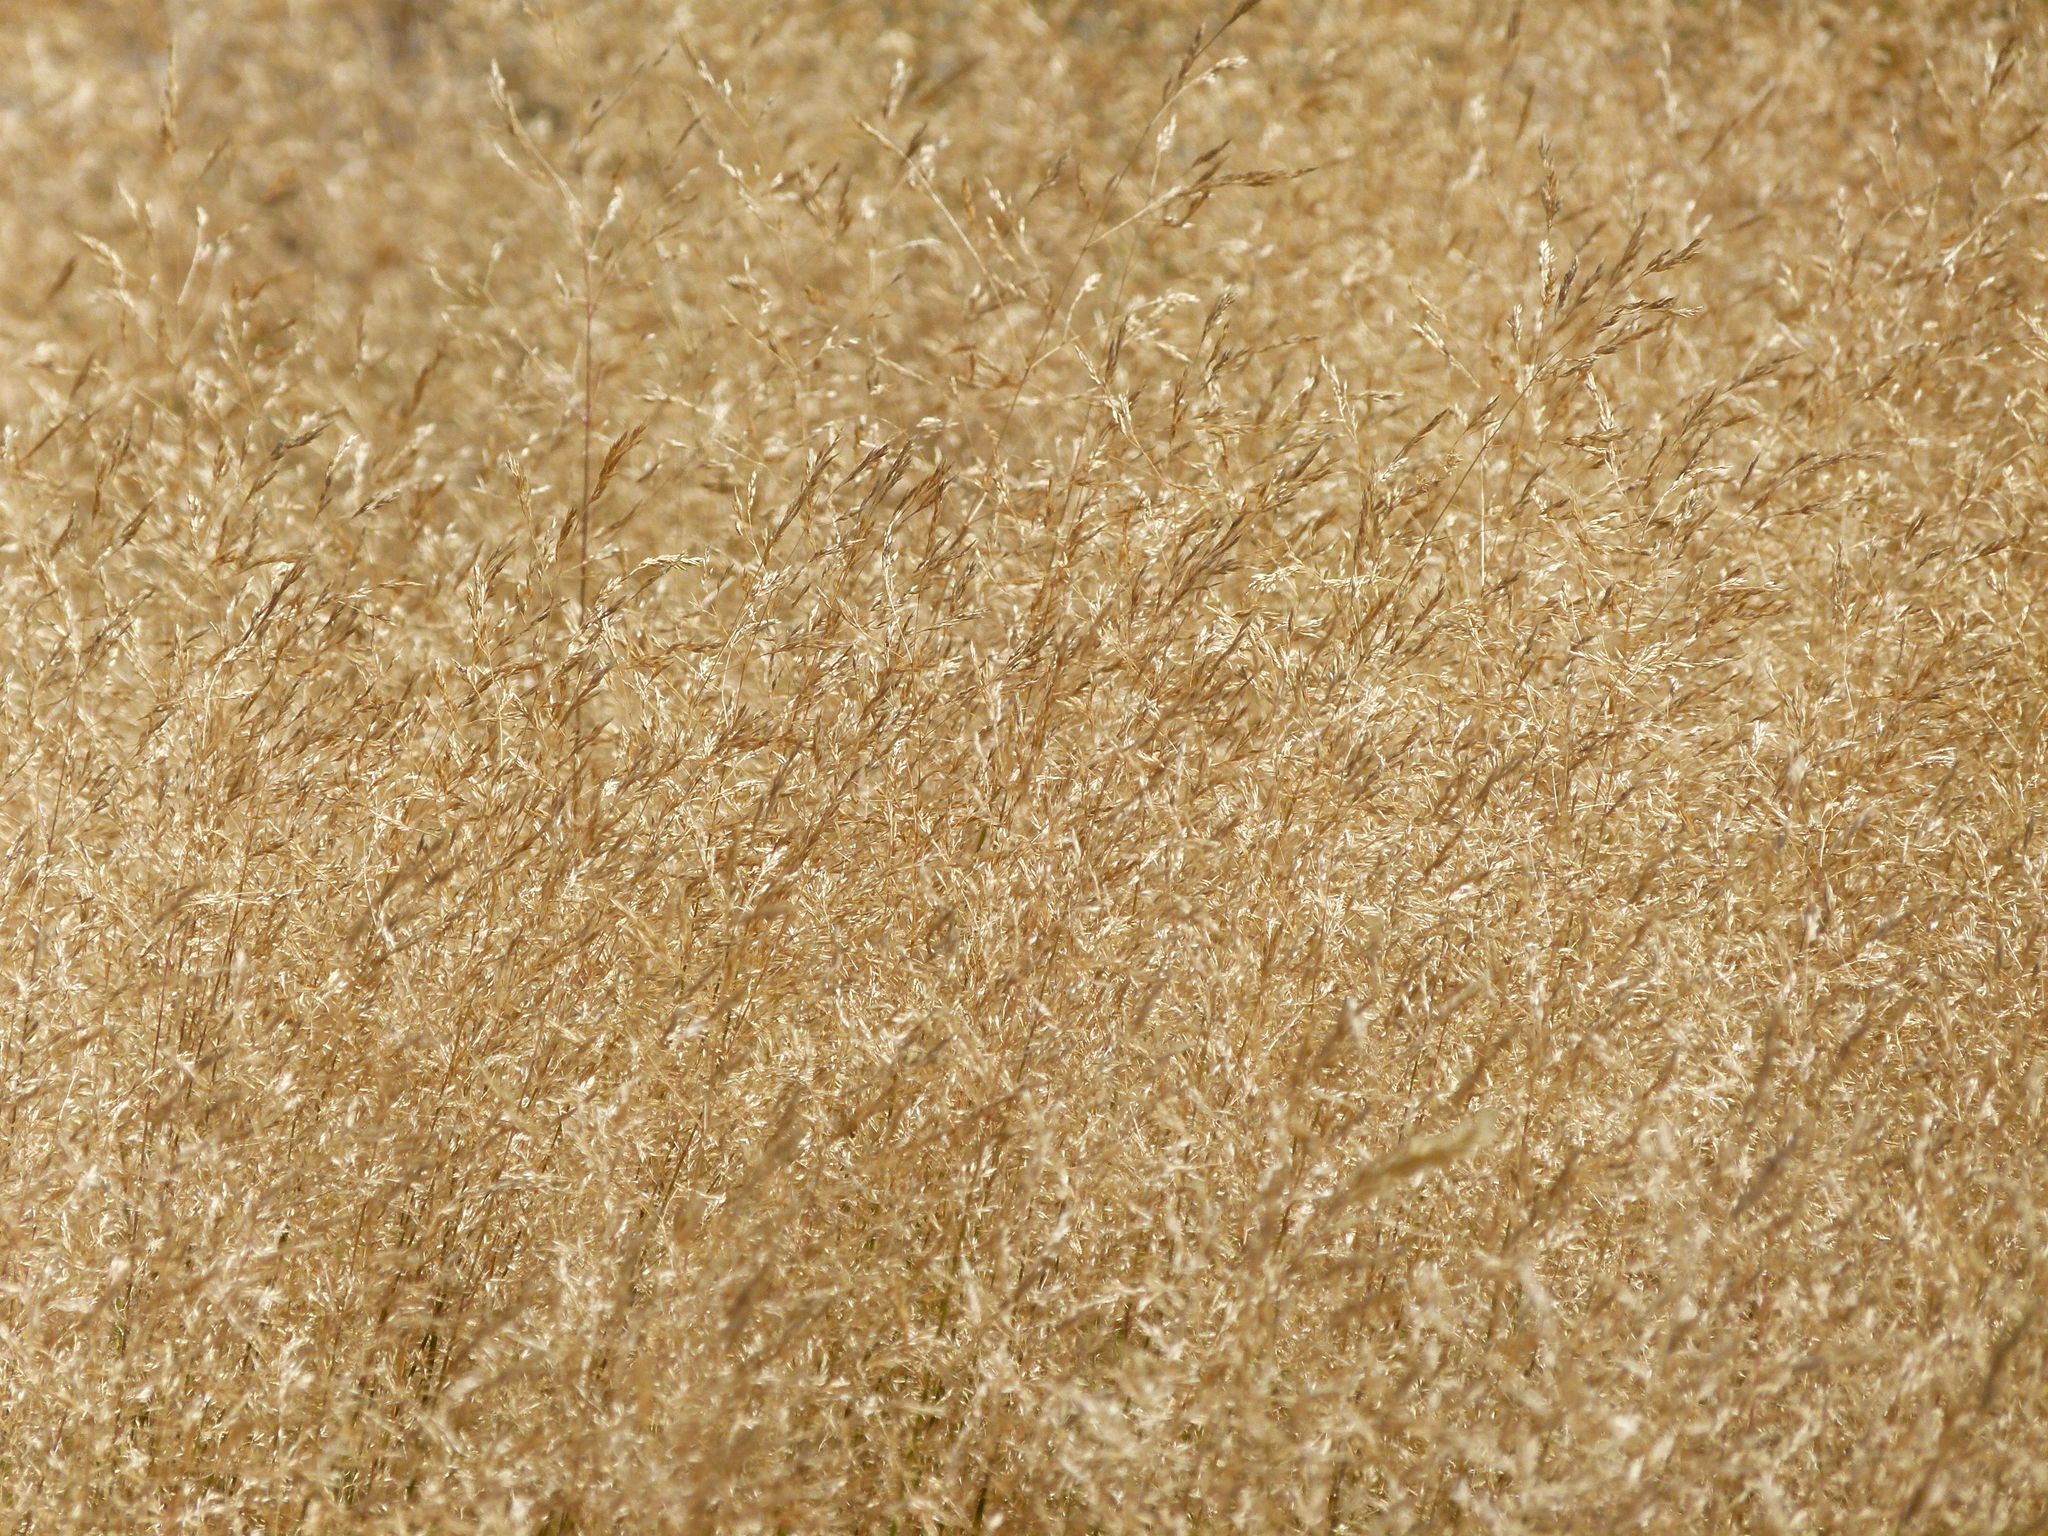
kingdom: Plantae
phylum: Tracheophyta
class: Liliopsida
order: Poales
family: Poaceae
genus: Agrostis
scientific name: Agrostis capillaris
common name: Colonial bentgrass
